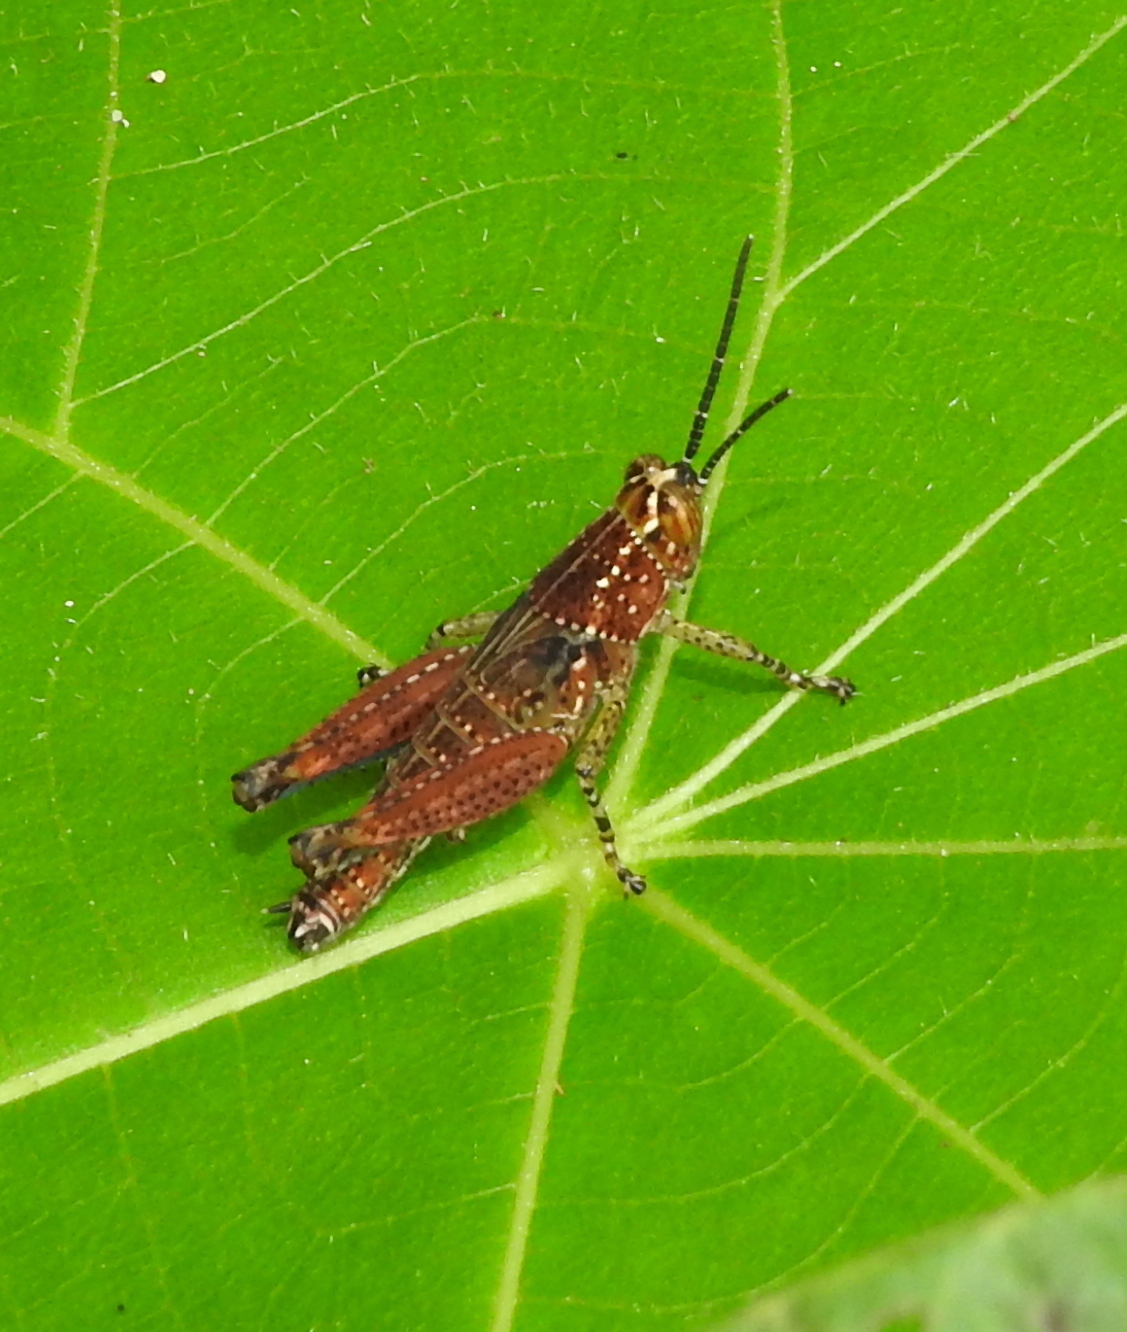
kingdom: Animalia
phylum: Arthropoda
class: Insecta
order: Orthoptera
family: Acrididae
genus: Xenocatantops
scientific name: Xenocatantops humile
